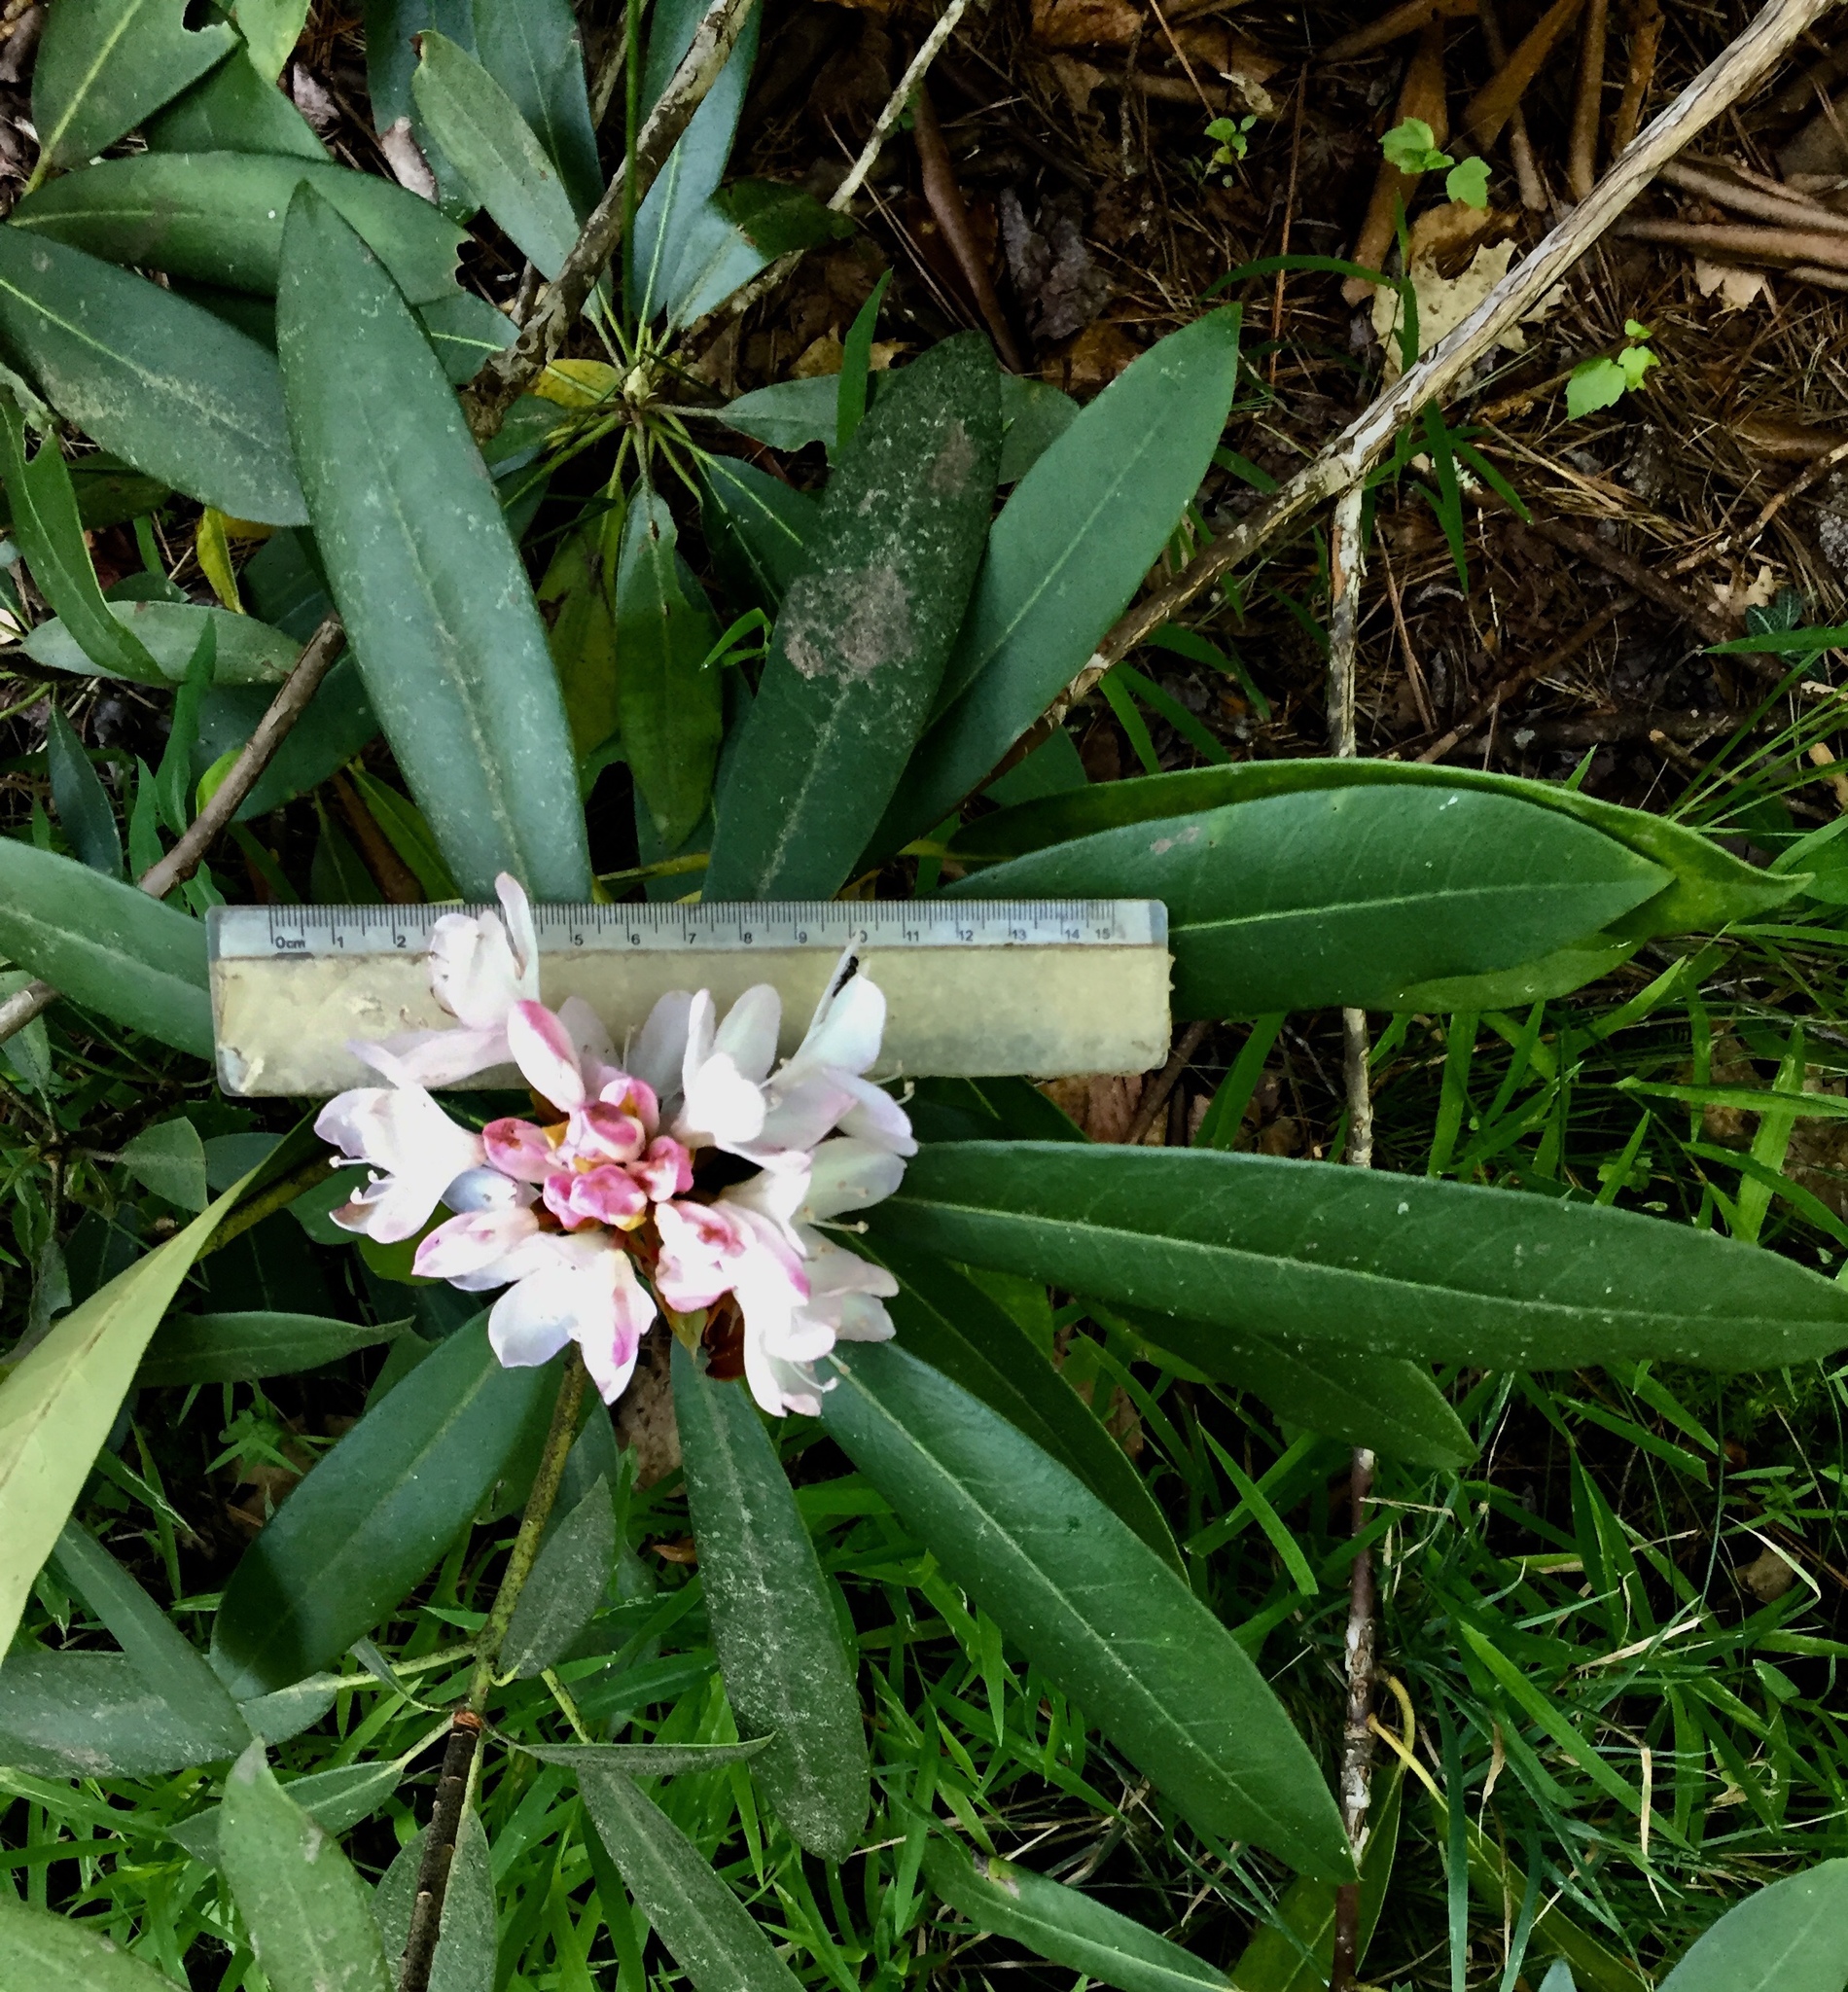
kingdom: Plantae
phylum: Tracheophyta
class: Magnoliopsida
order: Ericales
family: Ericaceae
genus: Rhododendron
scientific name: Rhododendron maximum
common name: Great rhododendron
